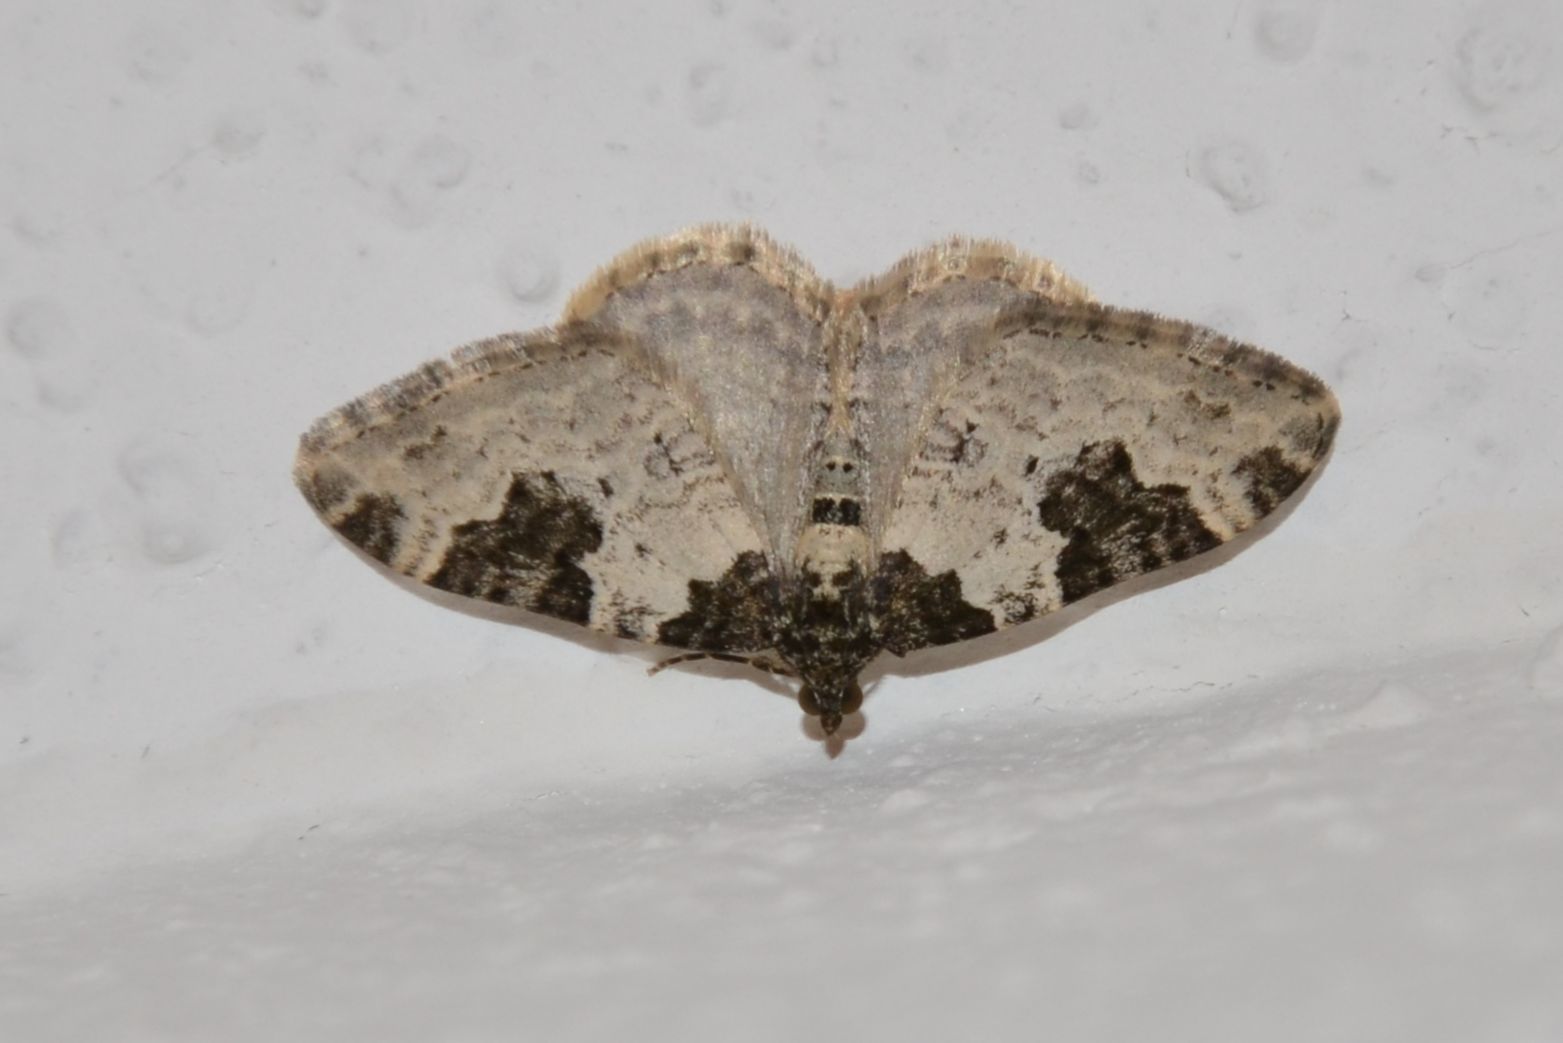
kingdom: Animalia
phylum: Arthropoda
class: Insecta
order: Lepidoptera
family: Geometridae
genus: Xanthorhoe
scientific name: Xanthorhoe fluctuata
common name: Garden carpet
